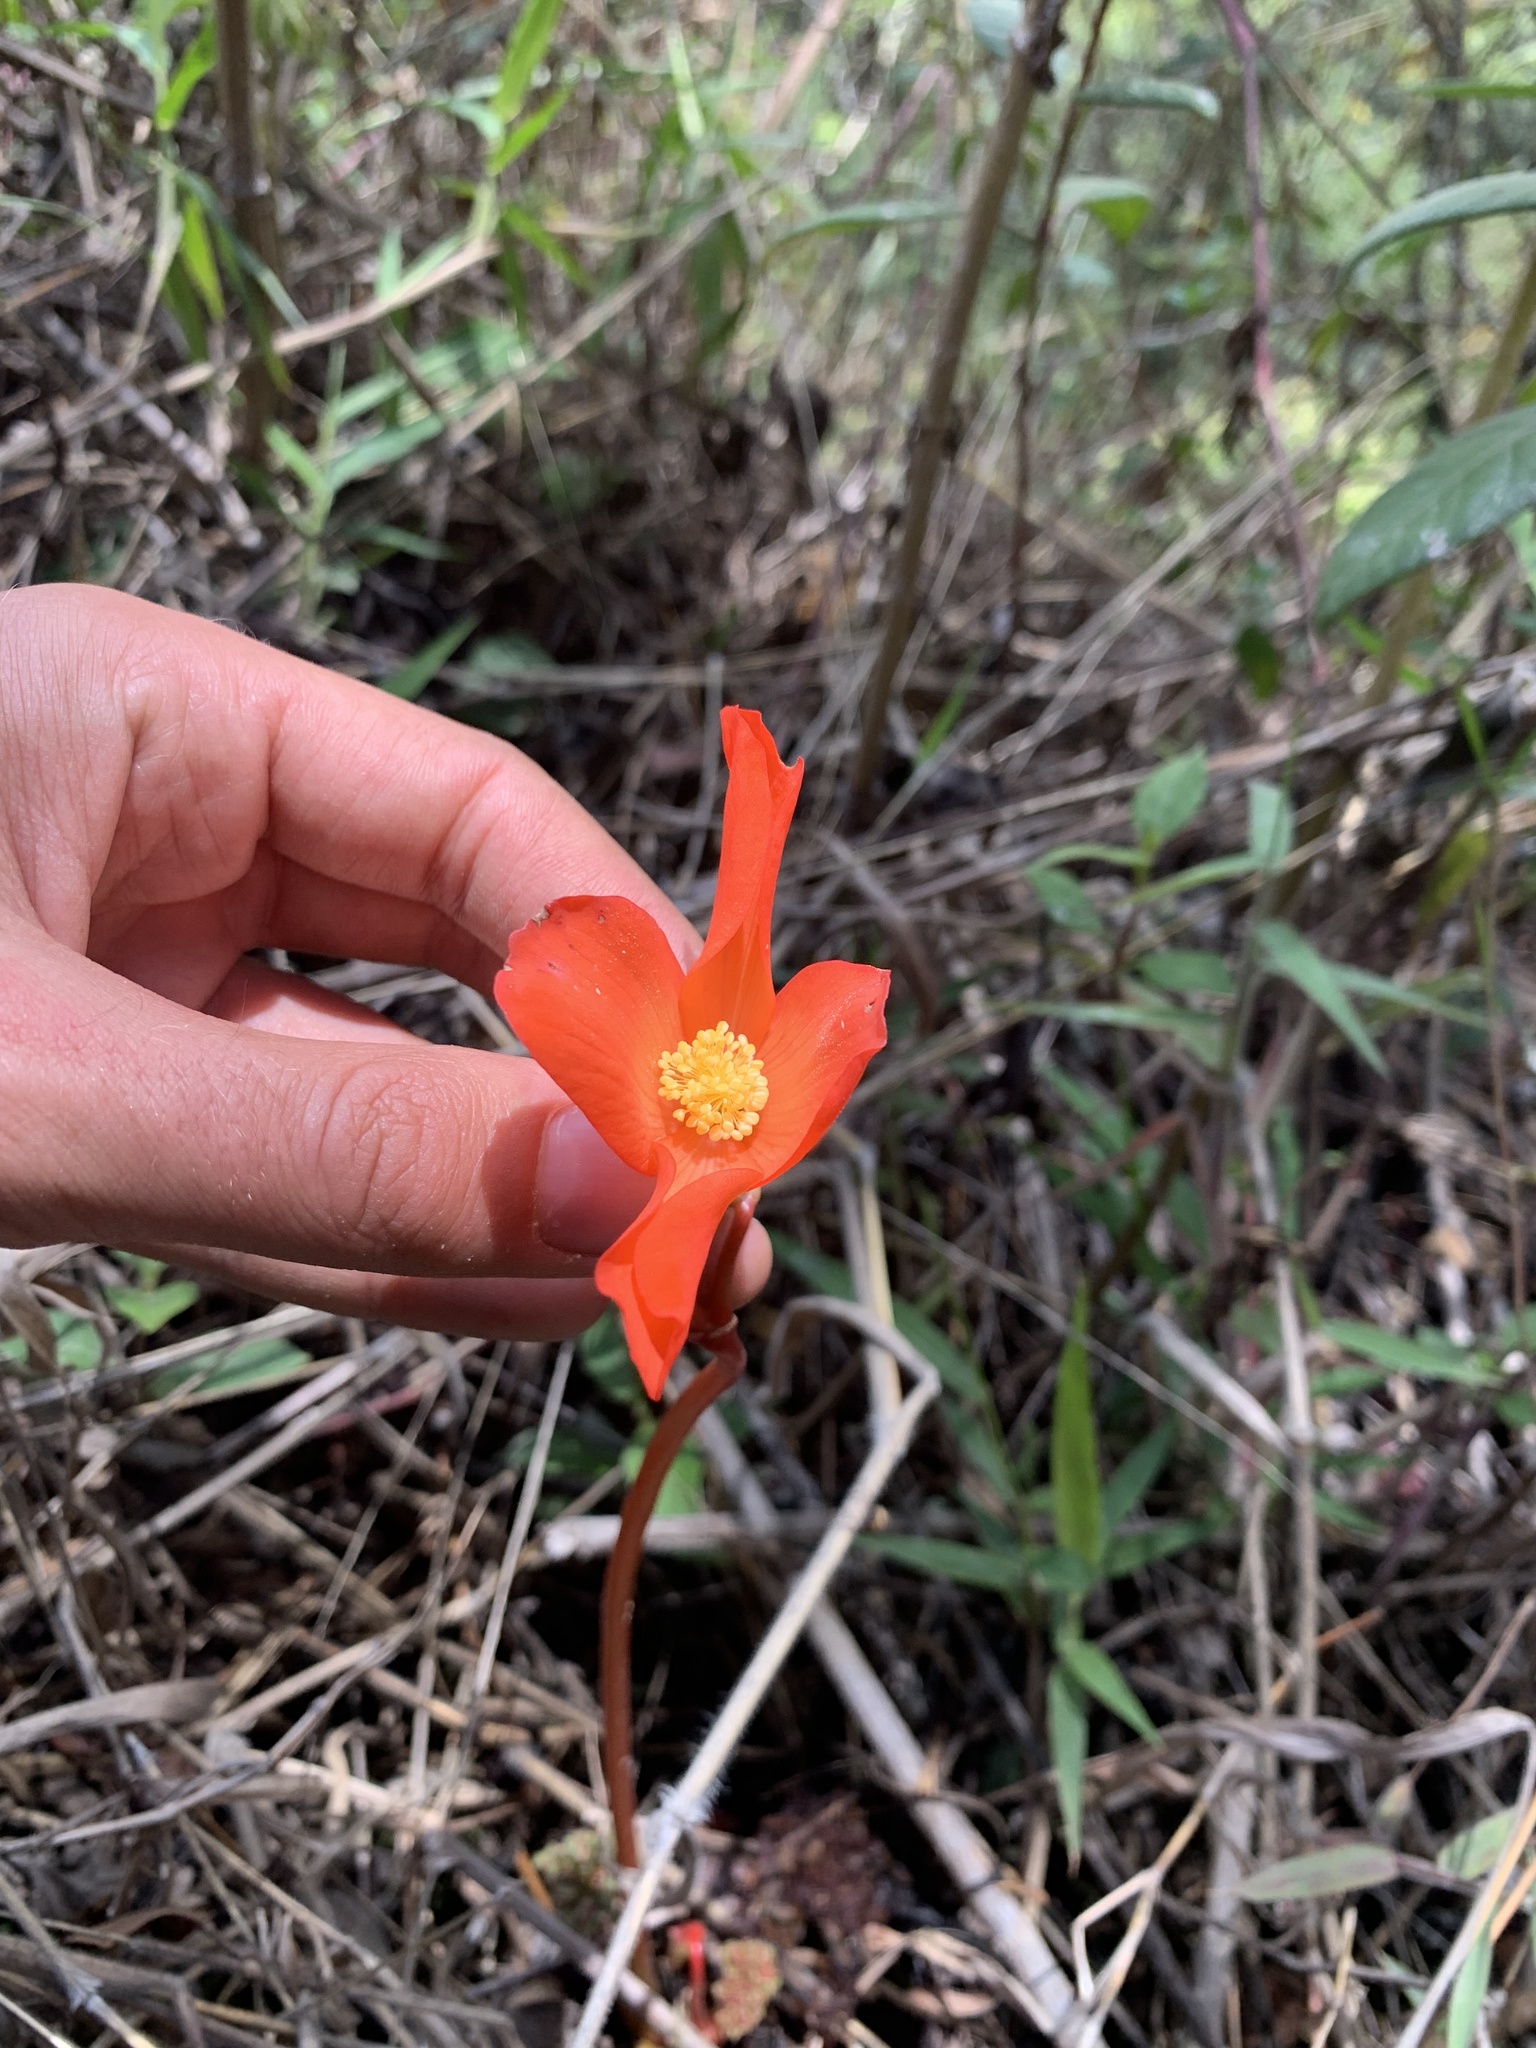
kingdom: Plantae
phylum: Tracheophyta
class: Magnoliopsida
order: Cucurbitales
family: Begoniaceae
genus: Begonia
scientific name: Begonia veitchii
